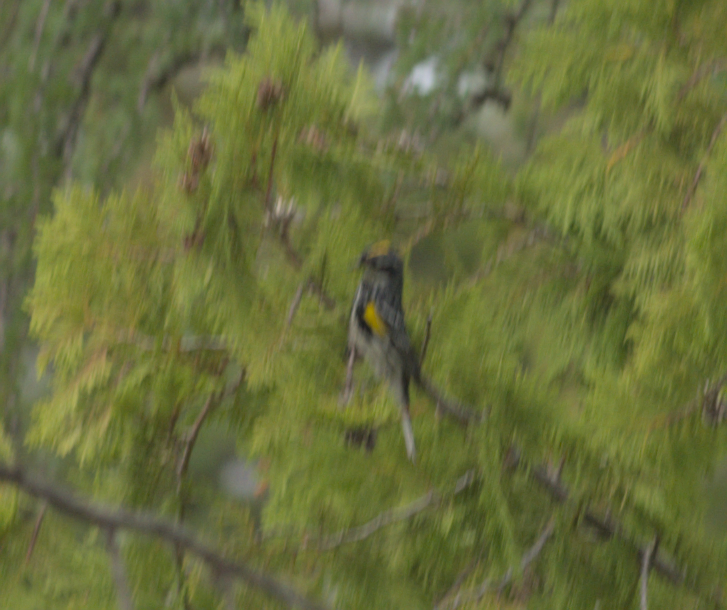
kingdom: Animalia
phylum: Chordata
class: Aves
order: Passeriformes
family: Parulidae
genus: Setophaga
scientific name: Setophaga coronata
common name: Myrtle warbler
